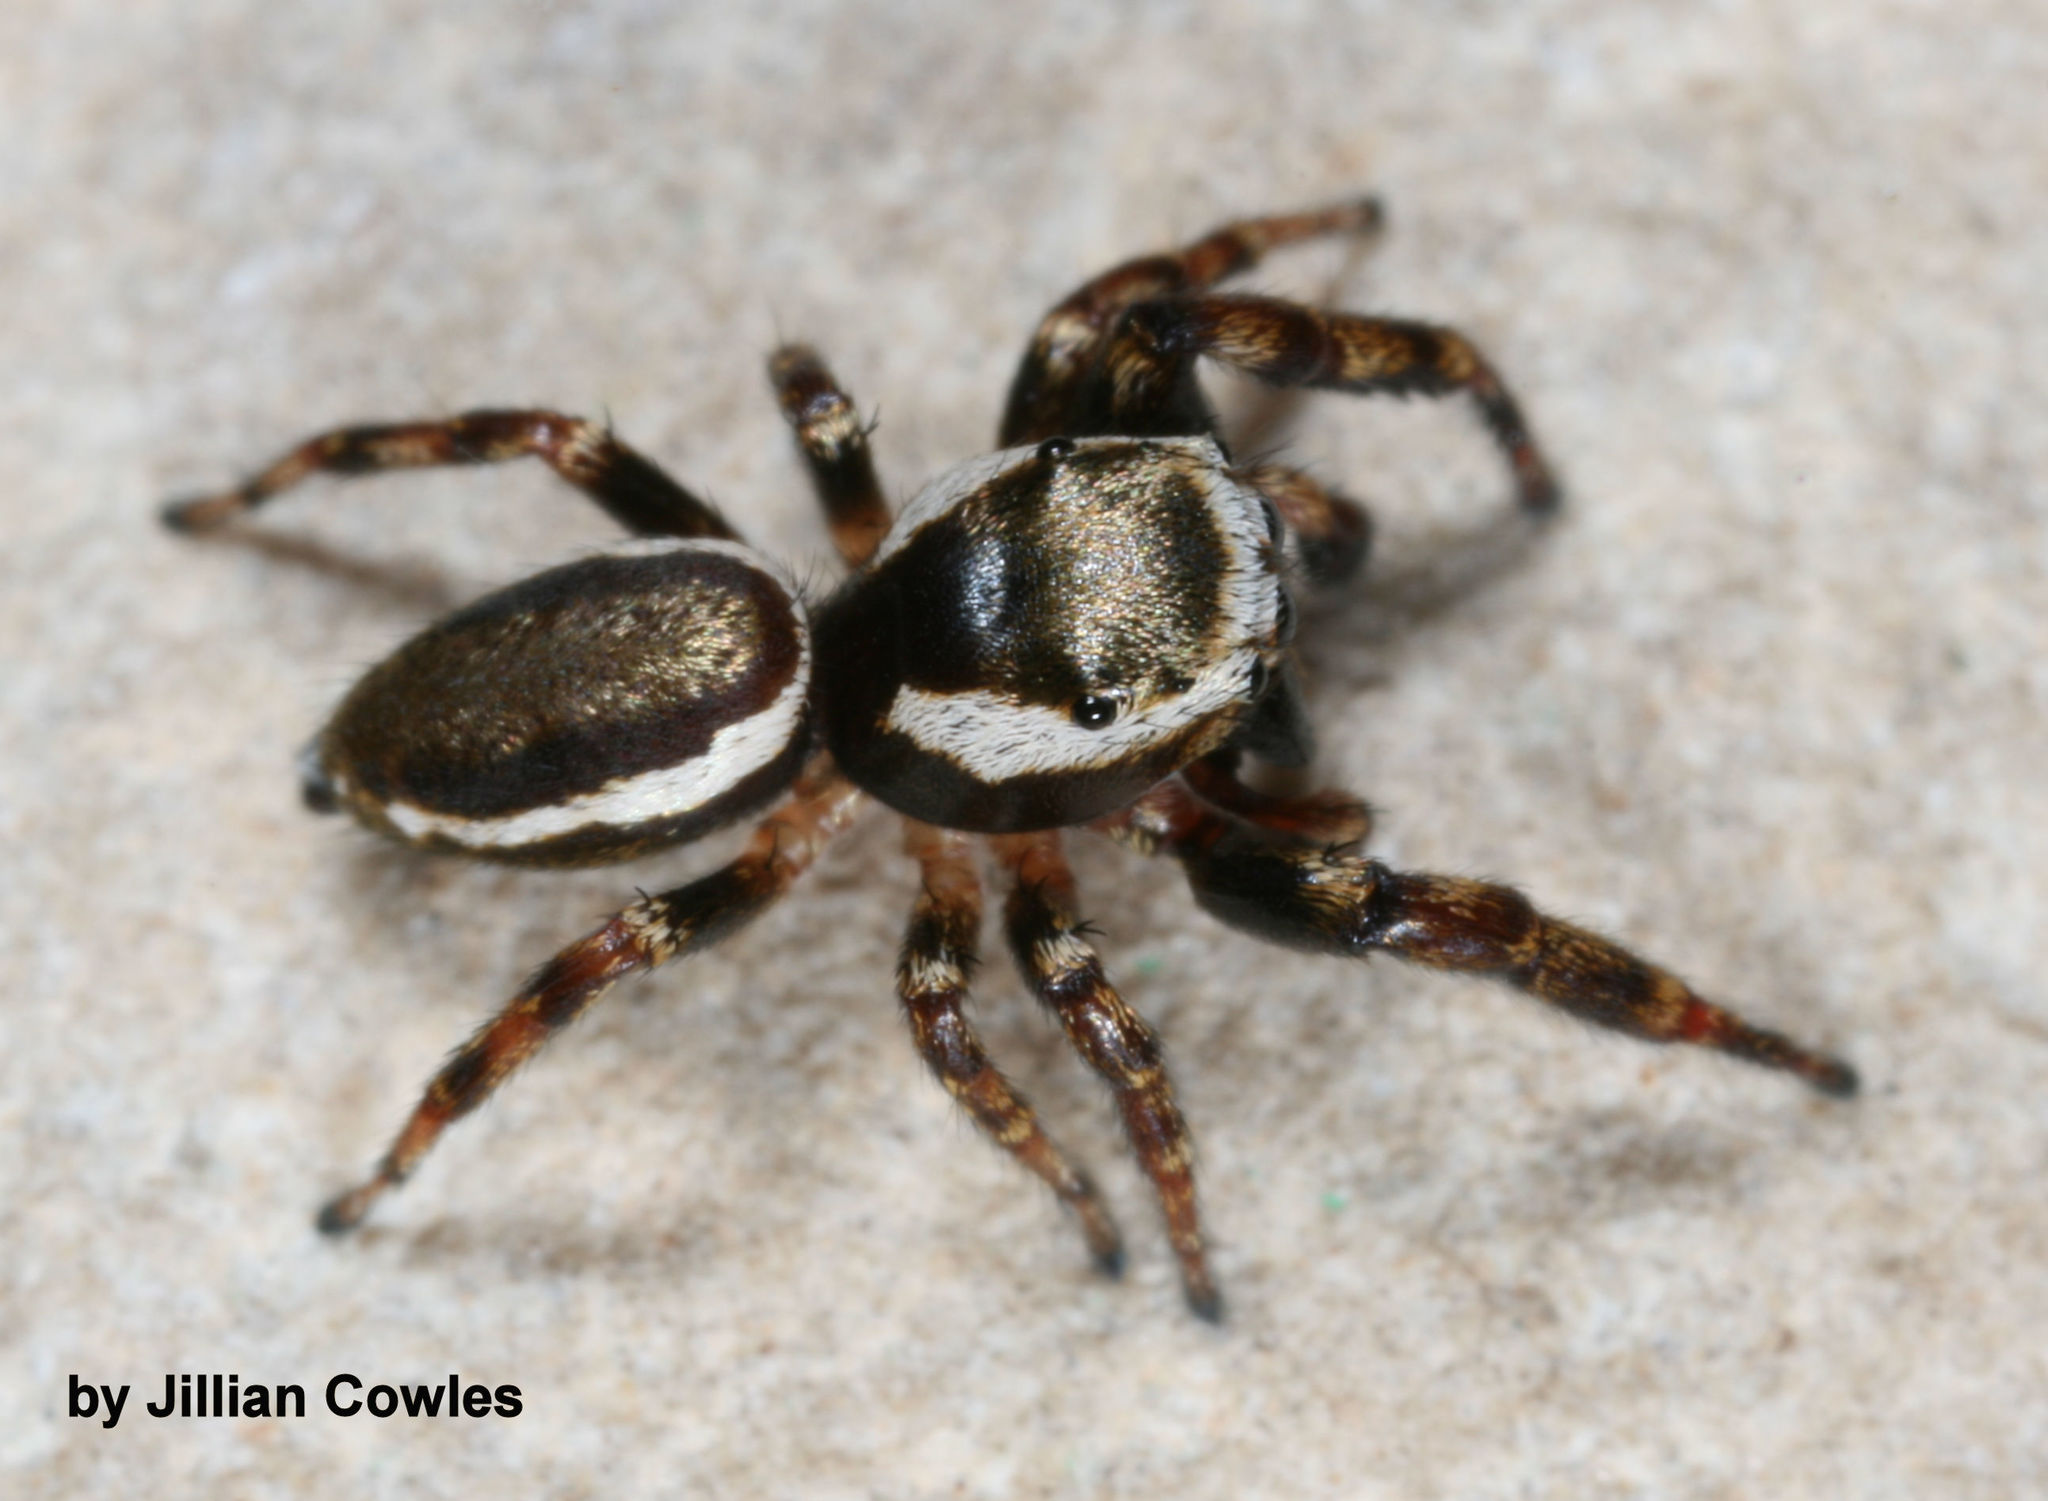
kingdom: Animalia
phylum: Arthropoda
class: Arachnida
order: Araneae
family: Salticidae
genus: Pelegrina
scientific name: Pelegrina furcata
